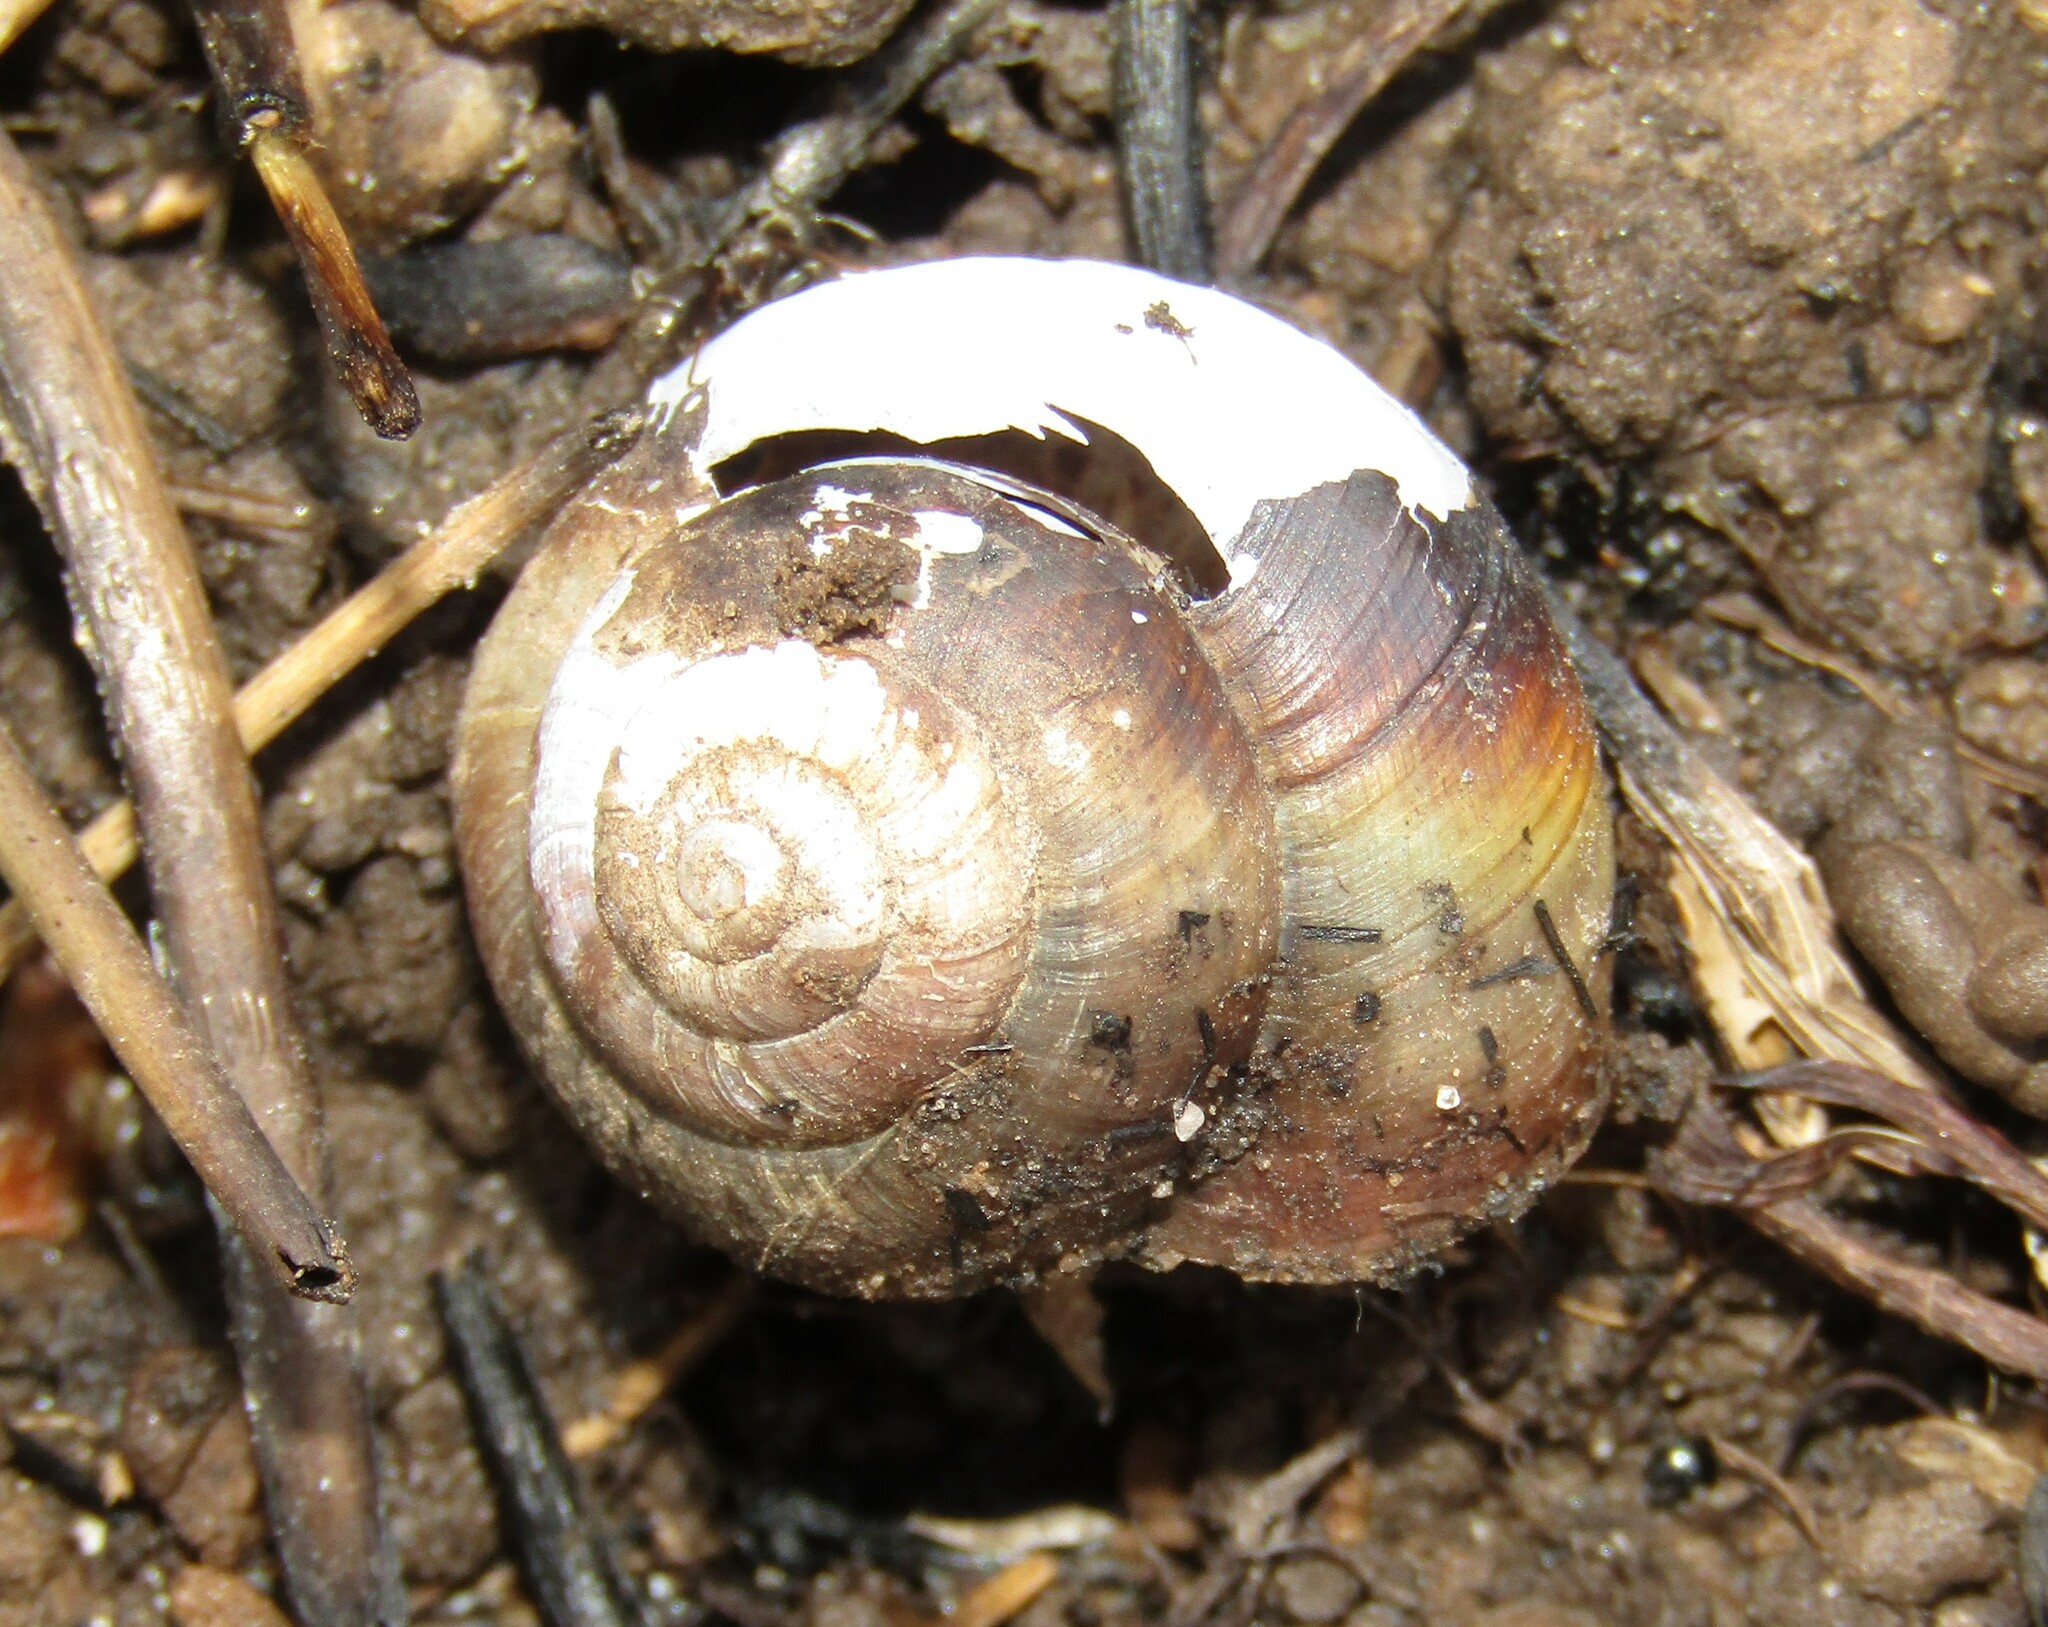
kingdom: Animalia
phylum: Mollusca
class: Gastropoda
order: Stylommatophora
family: Camaenidae
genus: Fruticicola
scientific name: Fruticicola fruticum
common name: Bush snail
